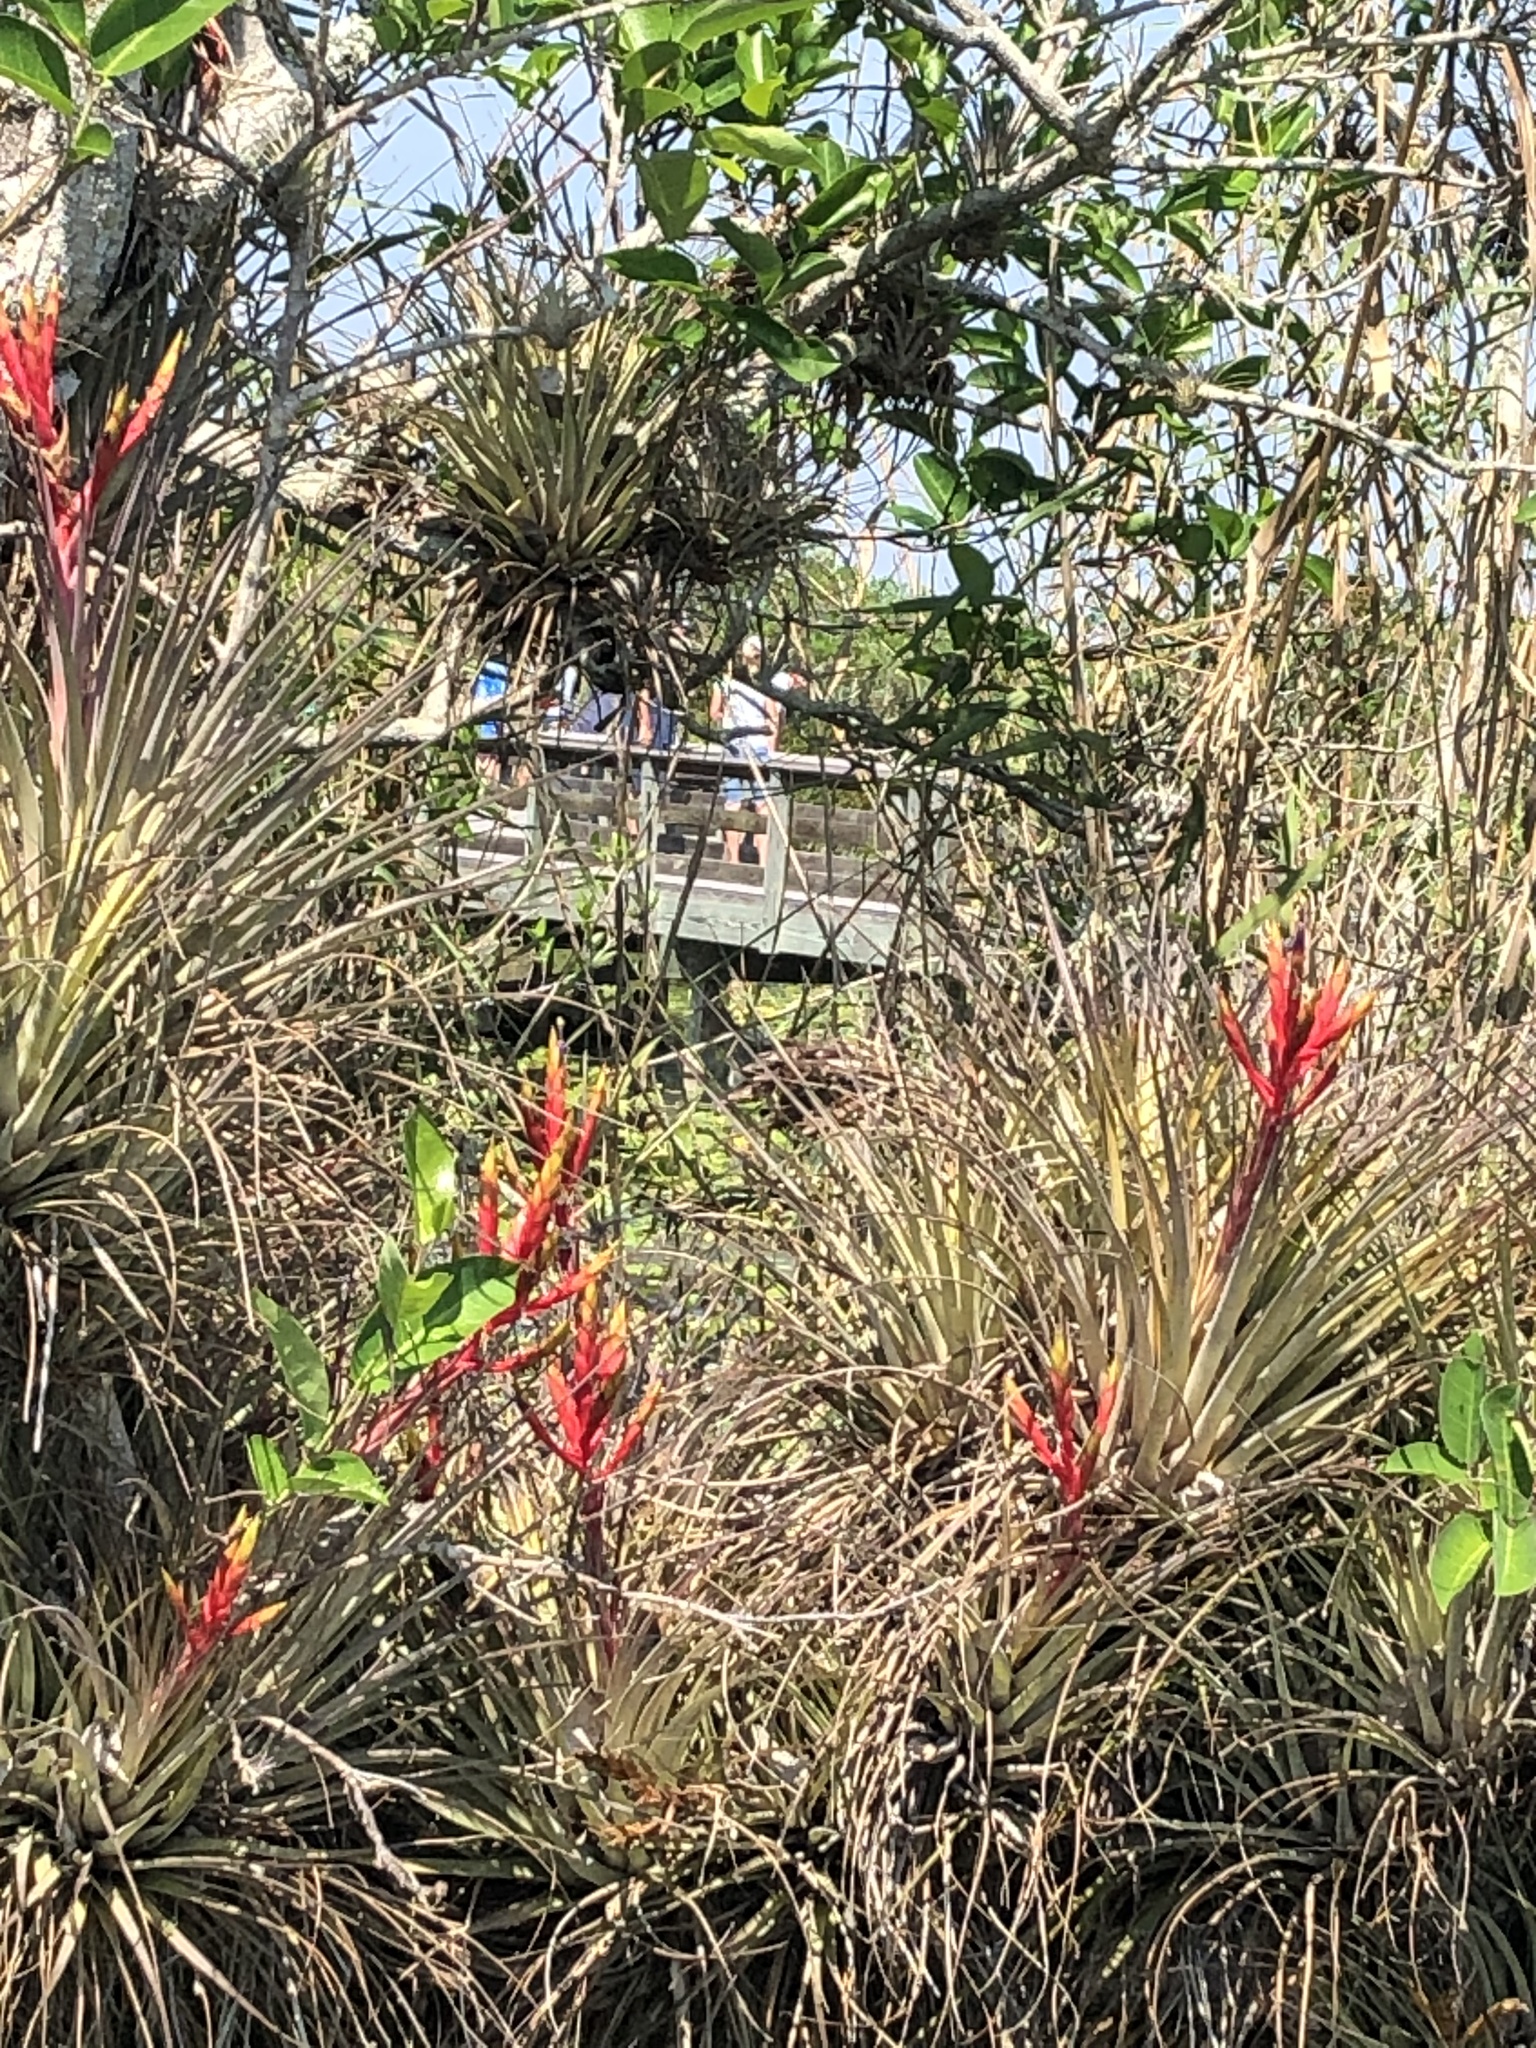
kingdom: Plantae
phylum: Tracheophyta
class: Liliopsida
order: Poales
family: Bromeliaceae
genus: Tillandsia
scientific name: Tillandsia fasciculata
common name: Giant airplant
